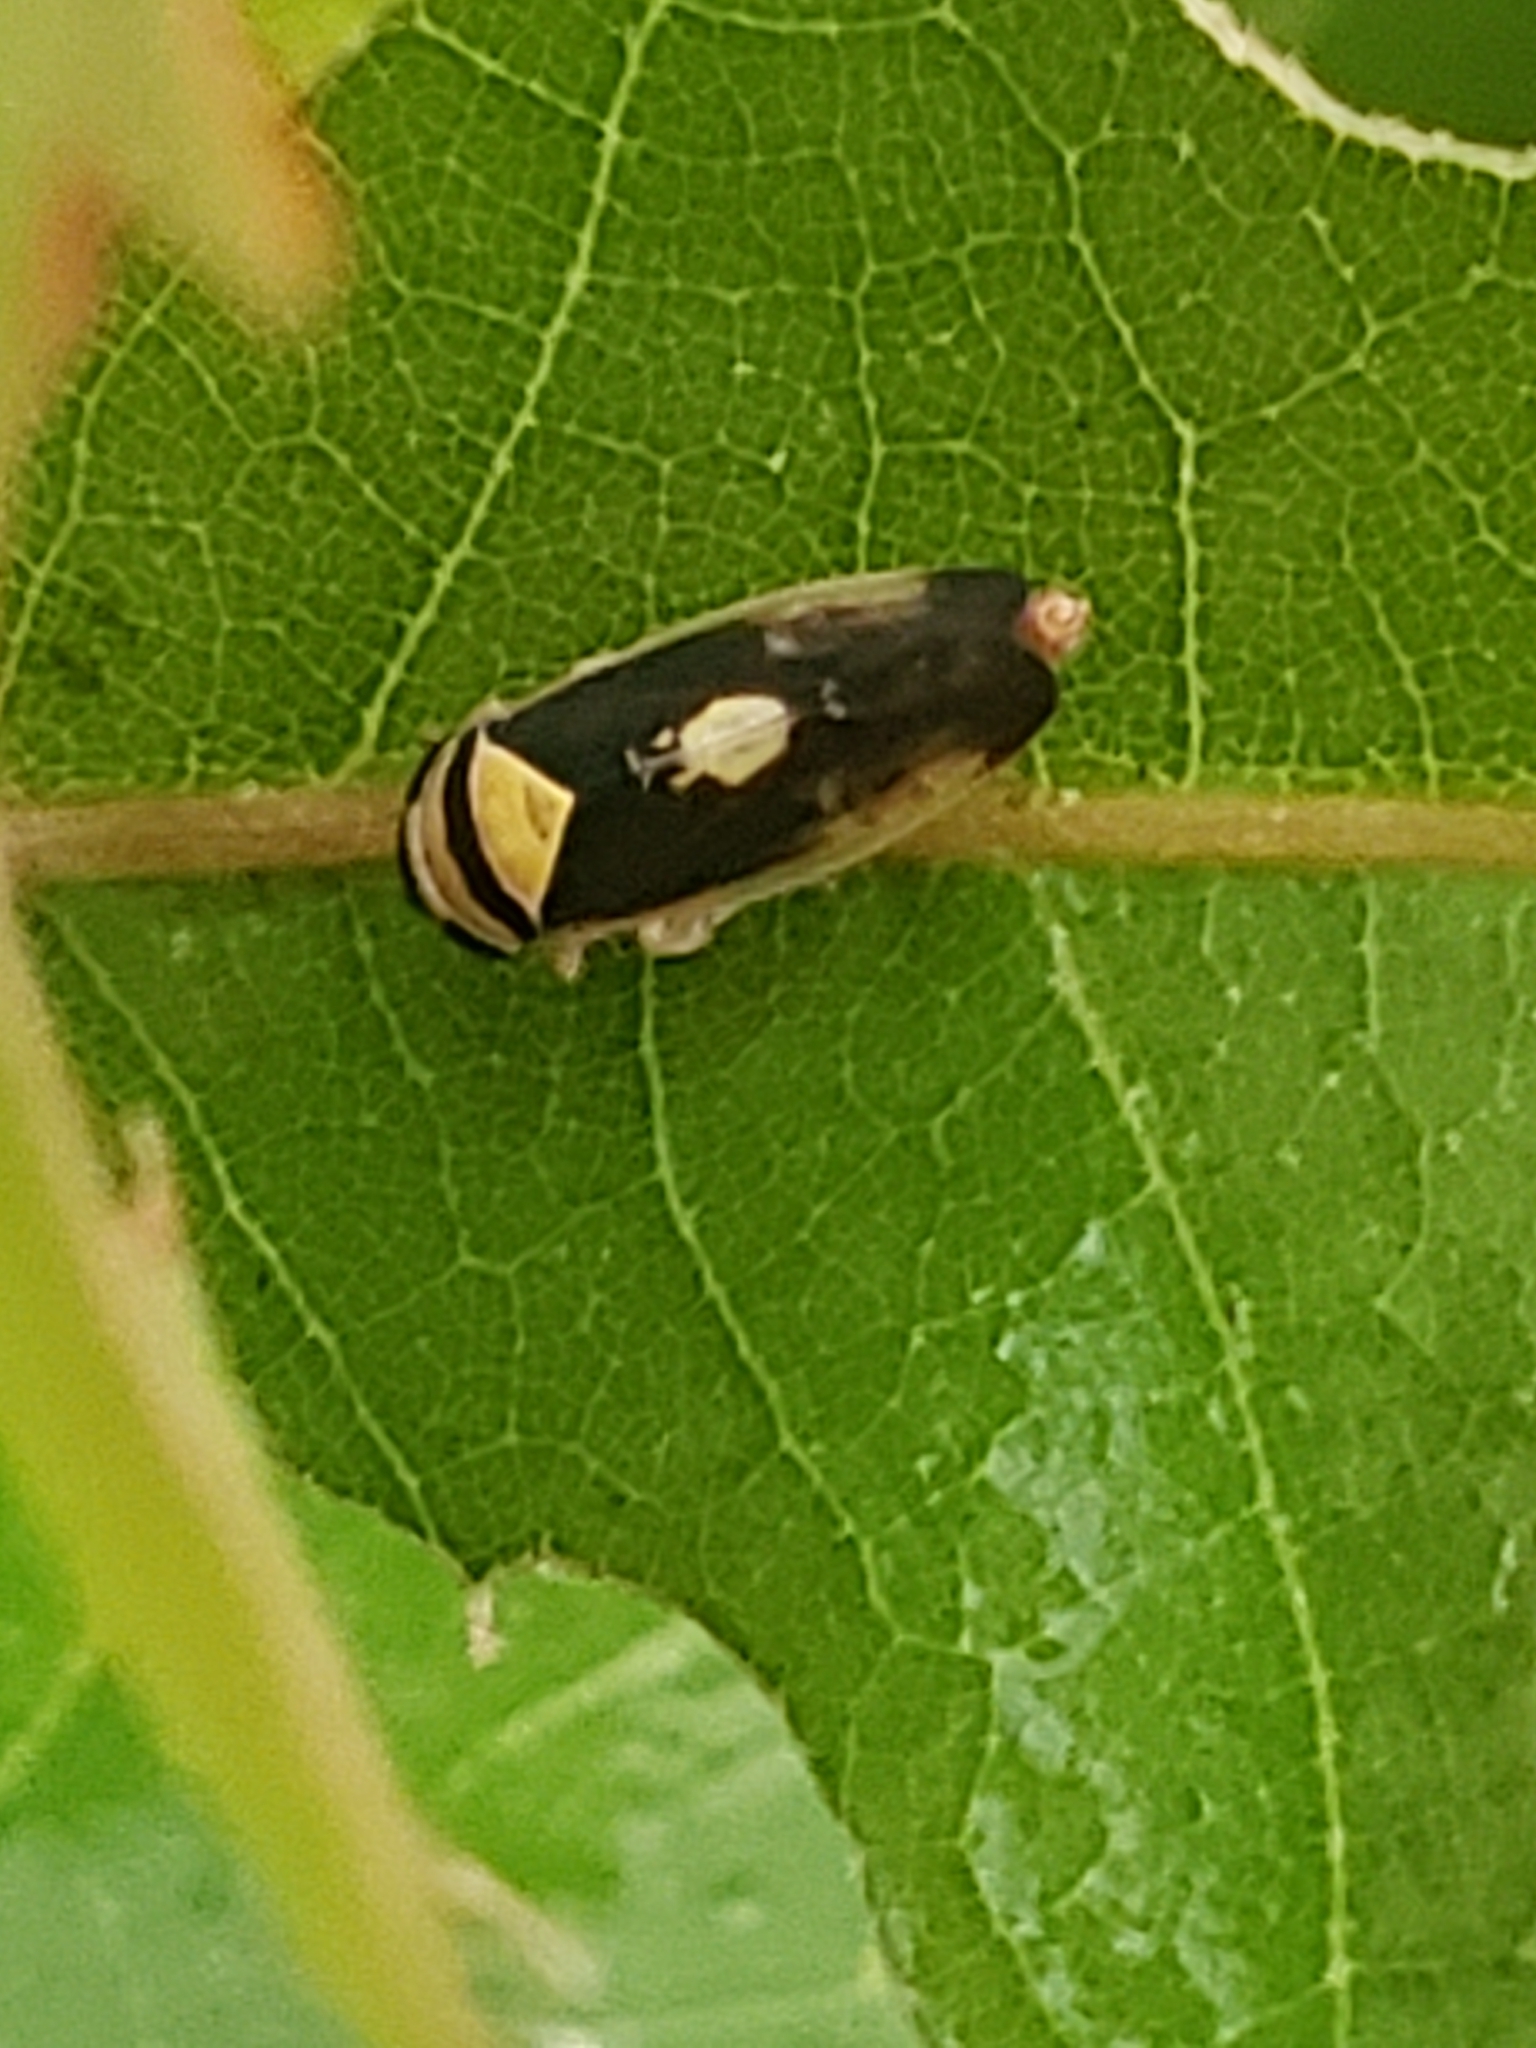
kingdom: Animalia
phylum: Arthropoda
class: Insecta
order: Hemiptera
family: Cicadellidae
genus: Eutettix
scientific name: Eutettix pictus
